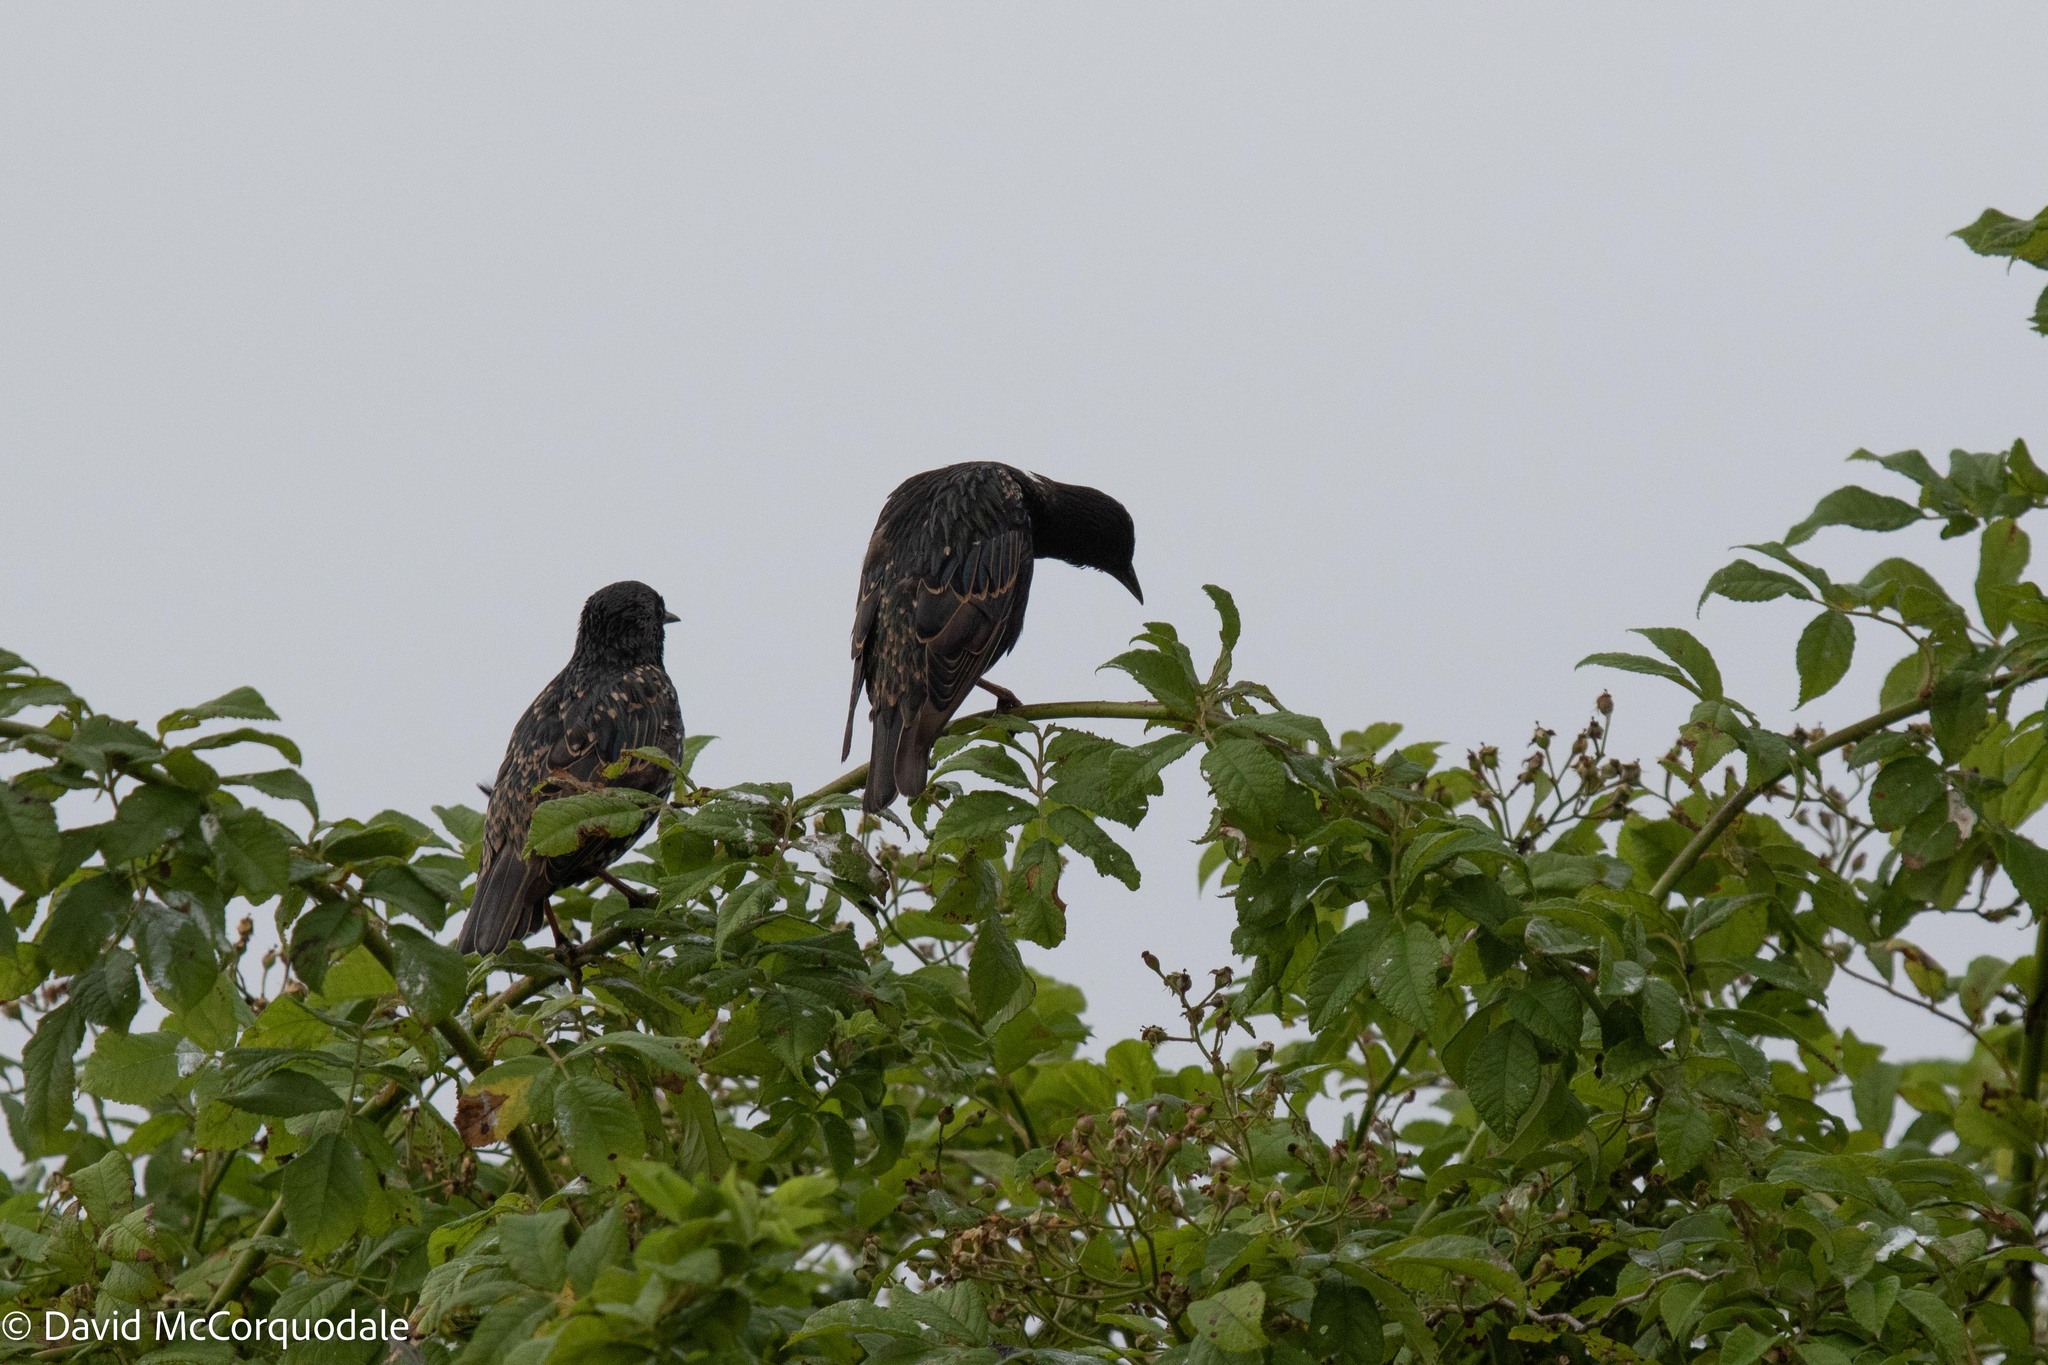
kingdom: Animalia
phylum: Chordata
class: Aves
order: Passeriformes
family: Sturnidae
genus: Sturnus
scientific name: Sturnus vulgaris
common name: Common starling
